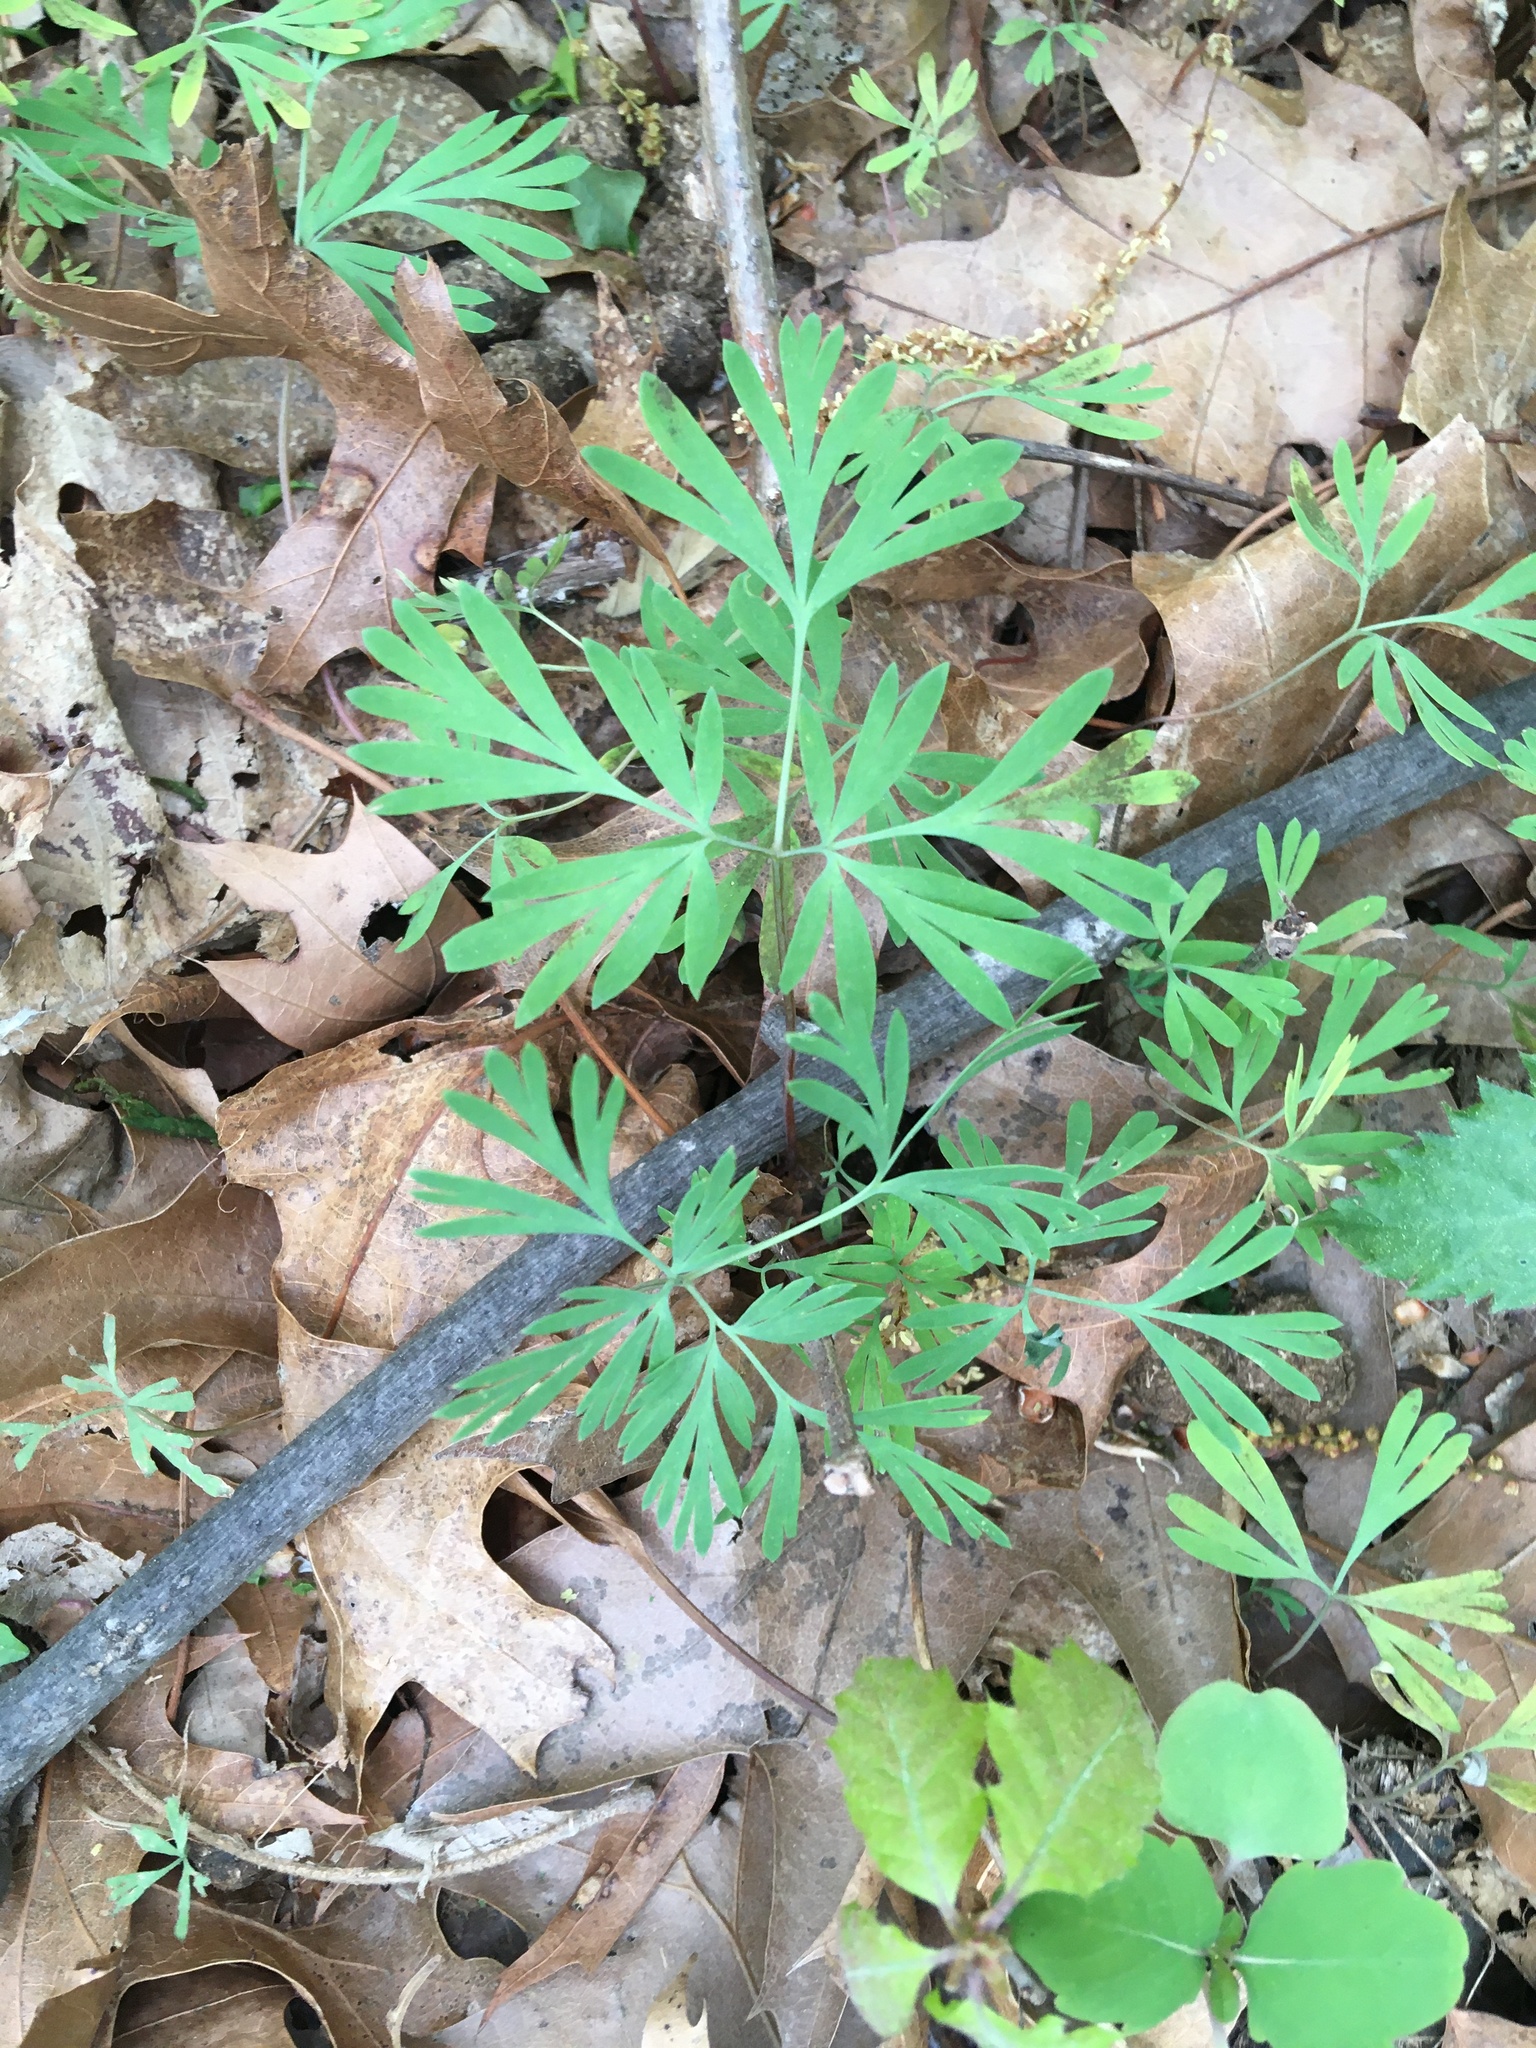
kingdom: Plantae
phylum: Tracheophyta
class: Magnoliopsida
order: Ranunculales
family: Papaveraceae
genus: Dicentra
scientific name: Dicentra cucullaria
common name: Dutchman's breeches
